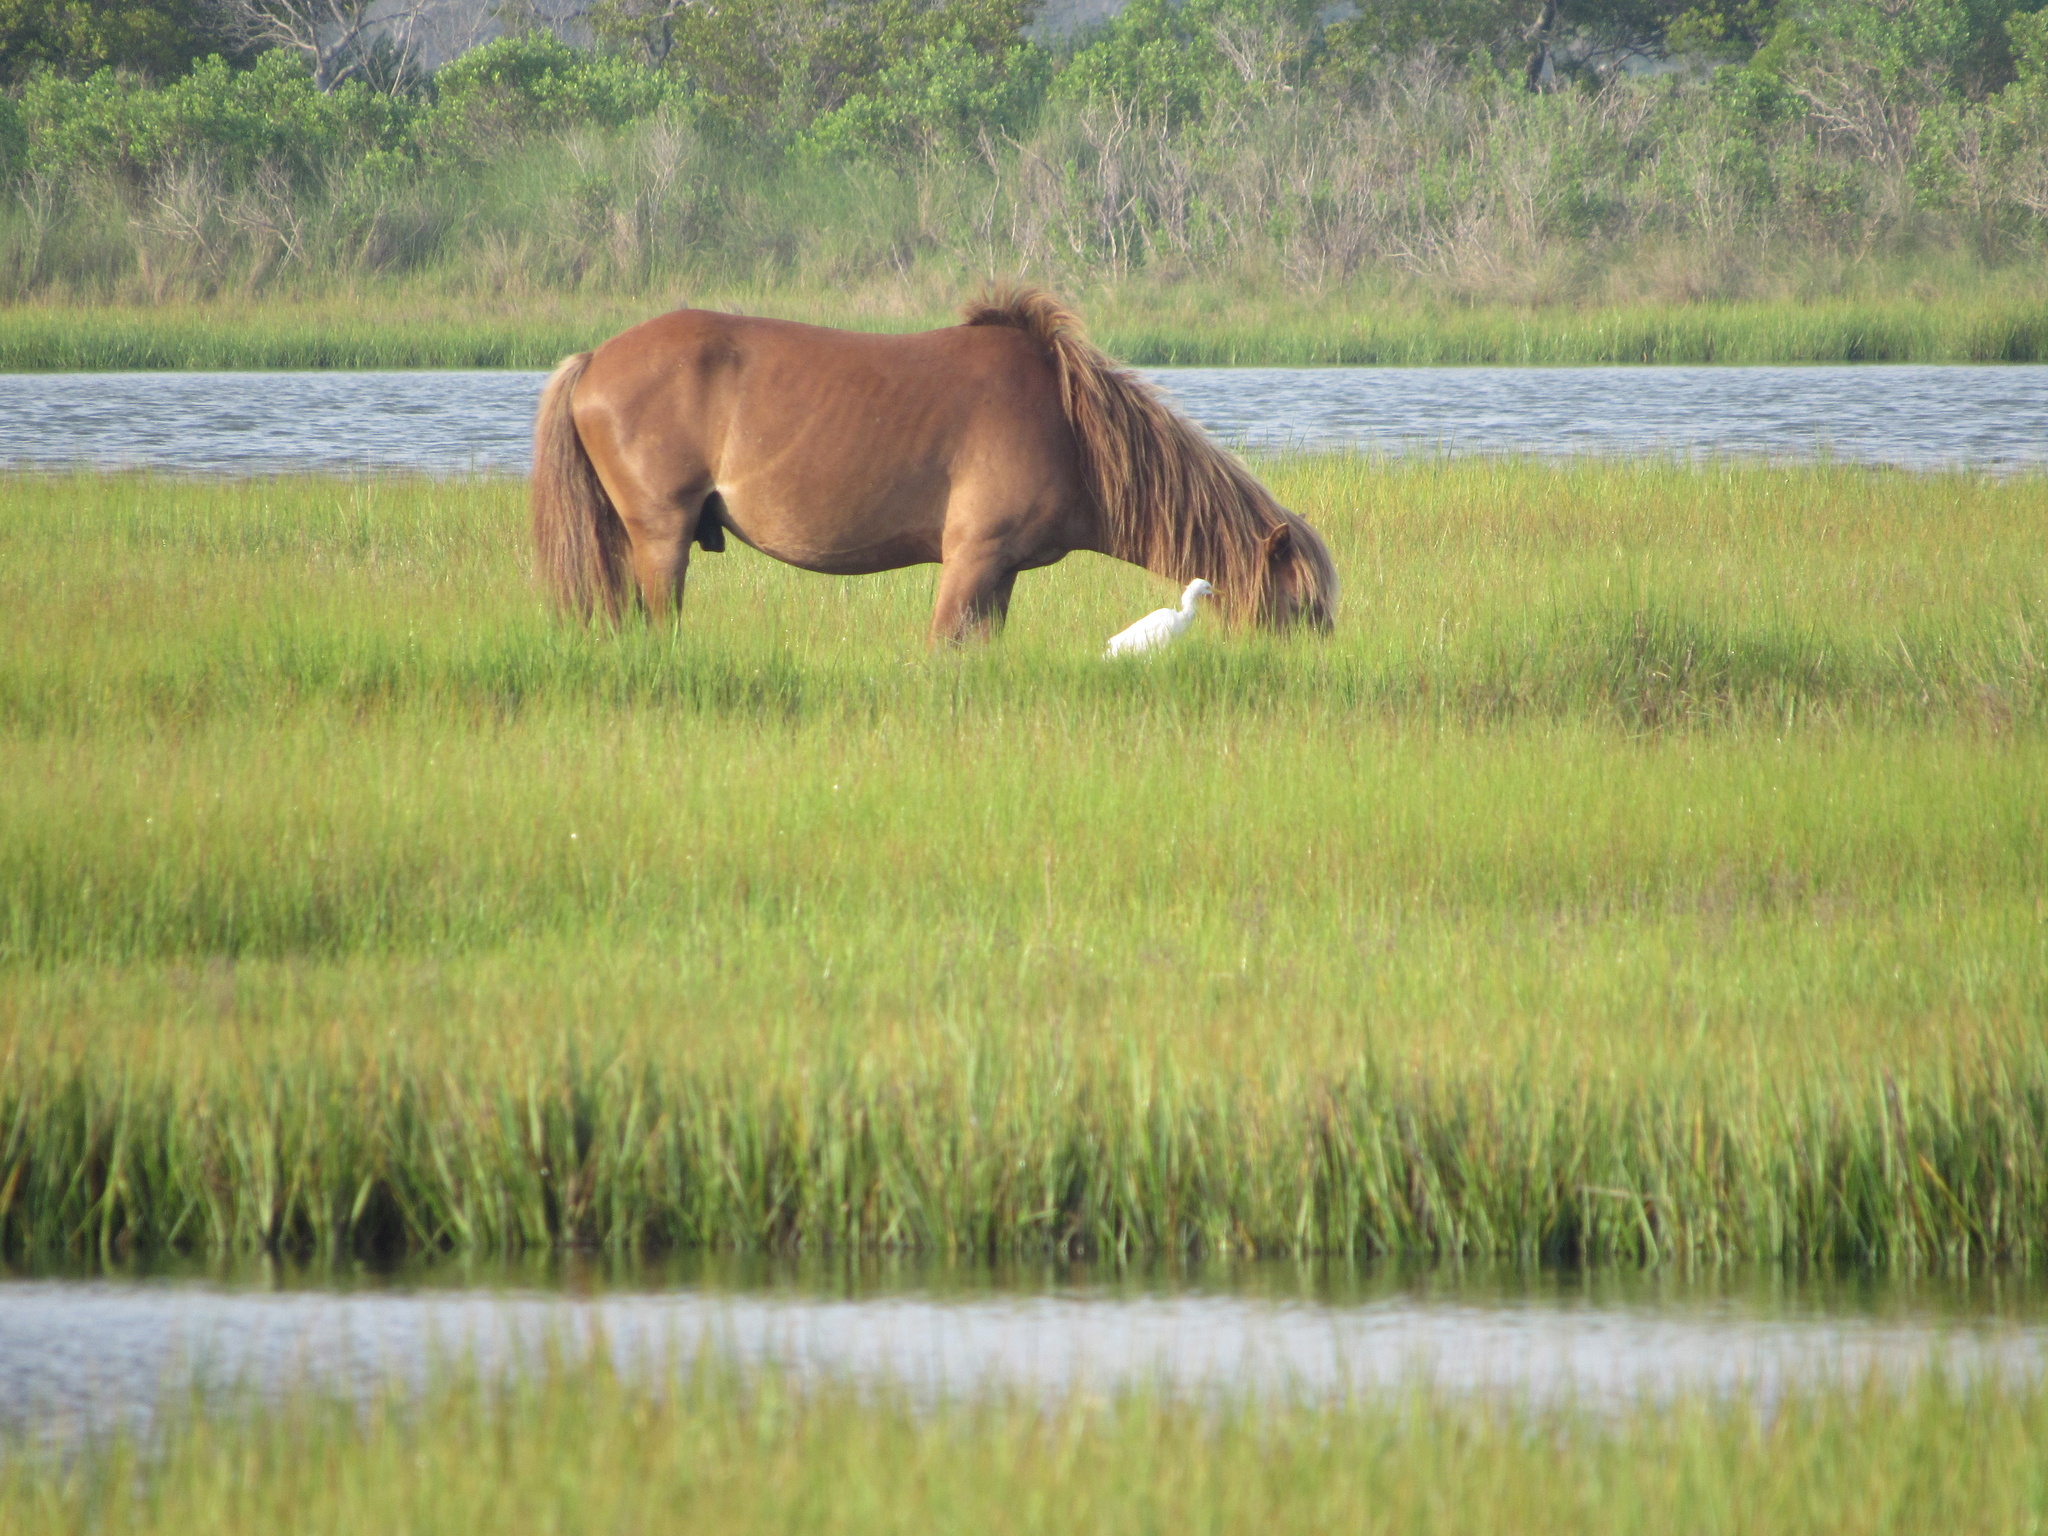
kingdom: Animalia
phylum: Chordata
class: Mammalia
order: Perissodactyla
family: Equidae
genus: Equus
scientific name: Equus caballus
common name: Horse
